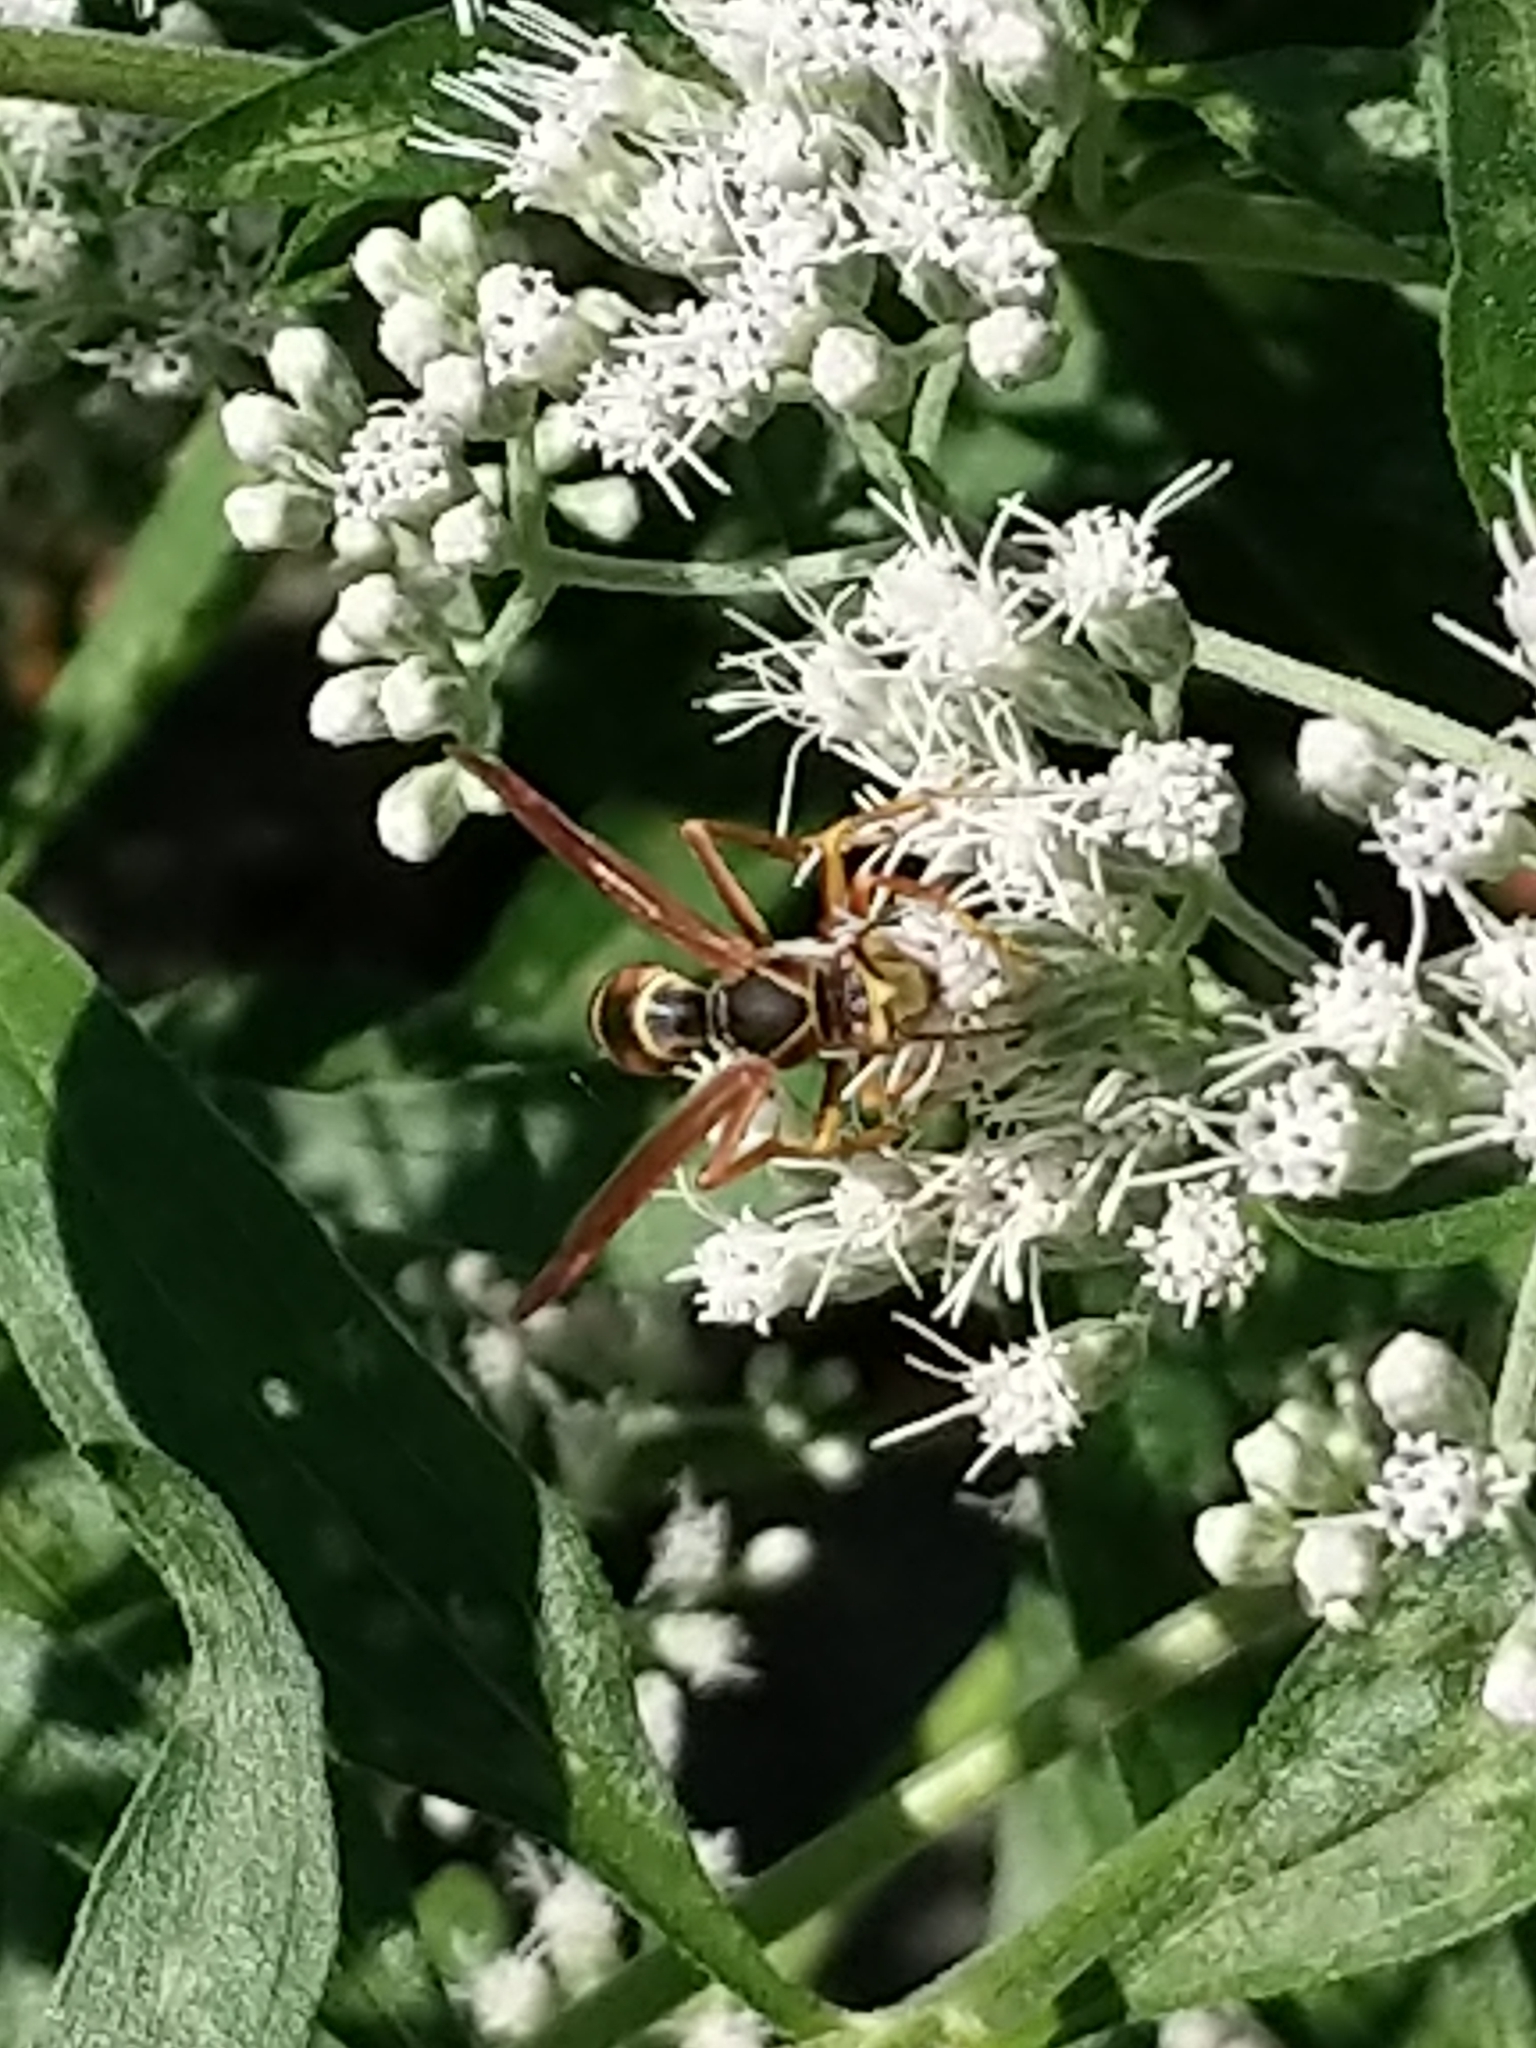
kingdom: Animalia
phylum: Arthropoda
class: Insecta
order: Hymenoptera
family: Eumenidae
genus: Polistes
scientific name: Polistes fuscatus
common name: Dark paper wasp
